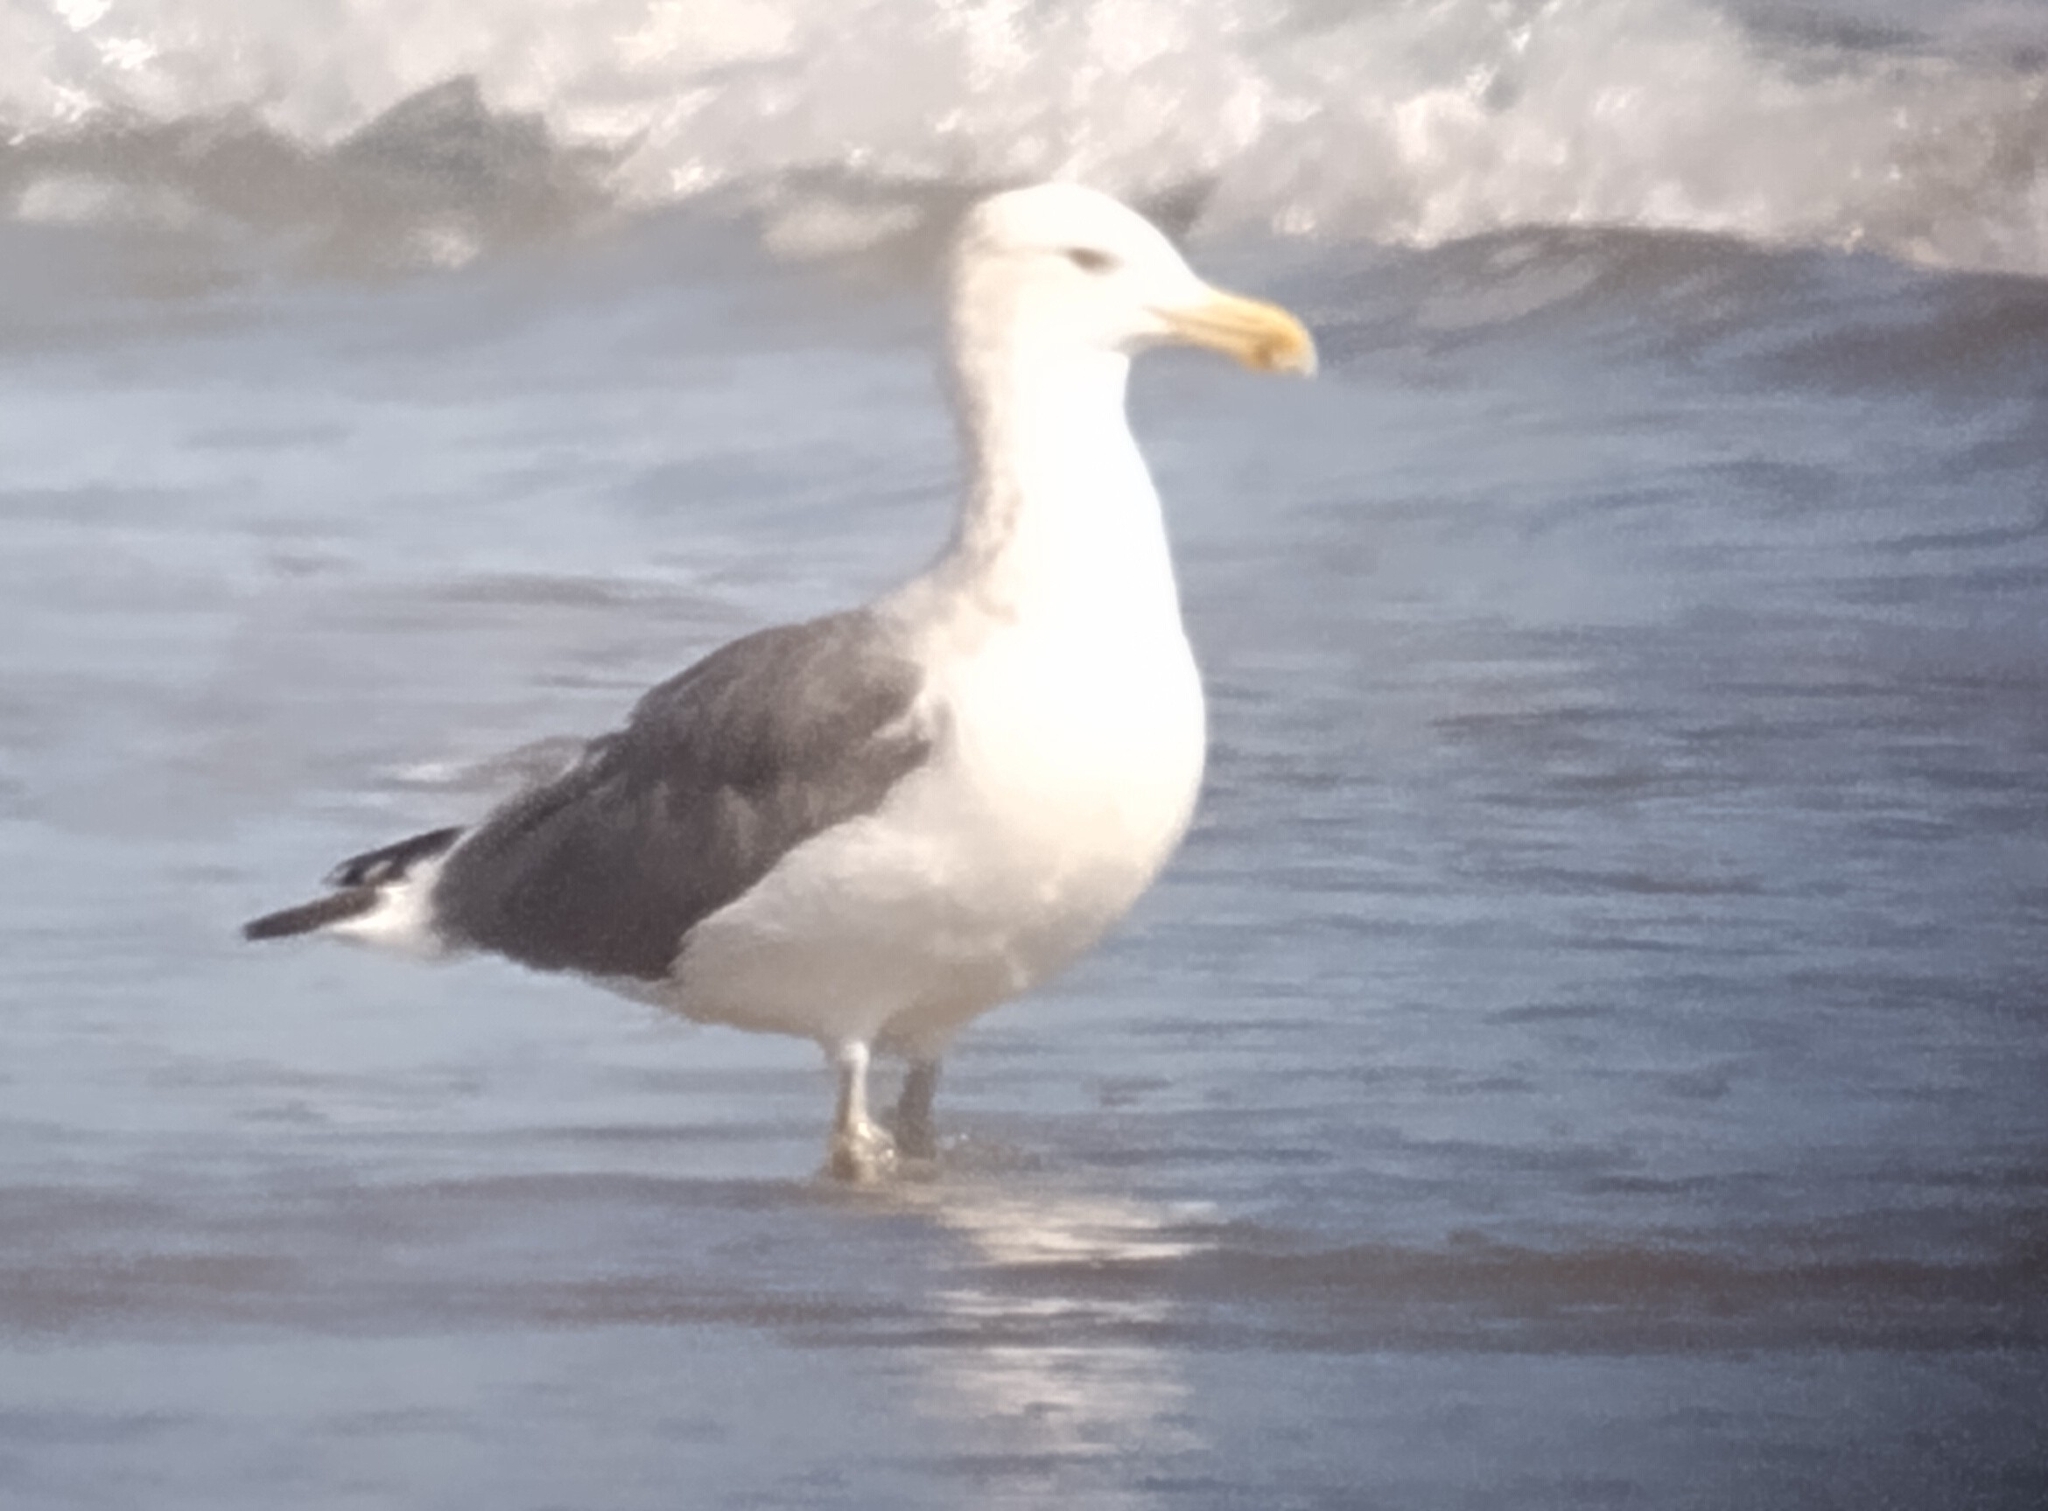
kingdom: Animalia
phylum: Chordata
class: Aves
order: Charadriiformes
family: Laridae
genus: Larus
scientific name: Larus fuscus
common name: Lesser black-backed gull
